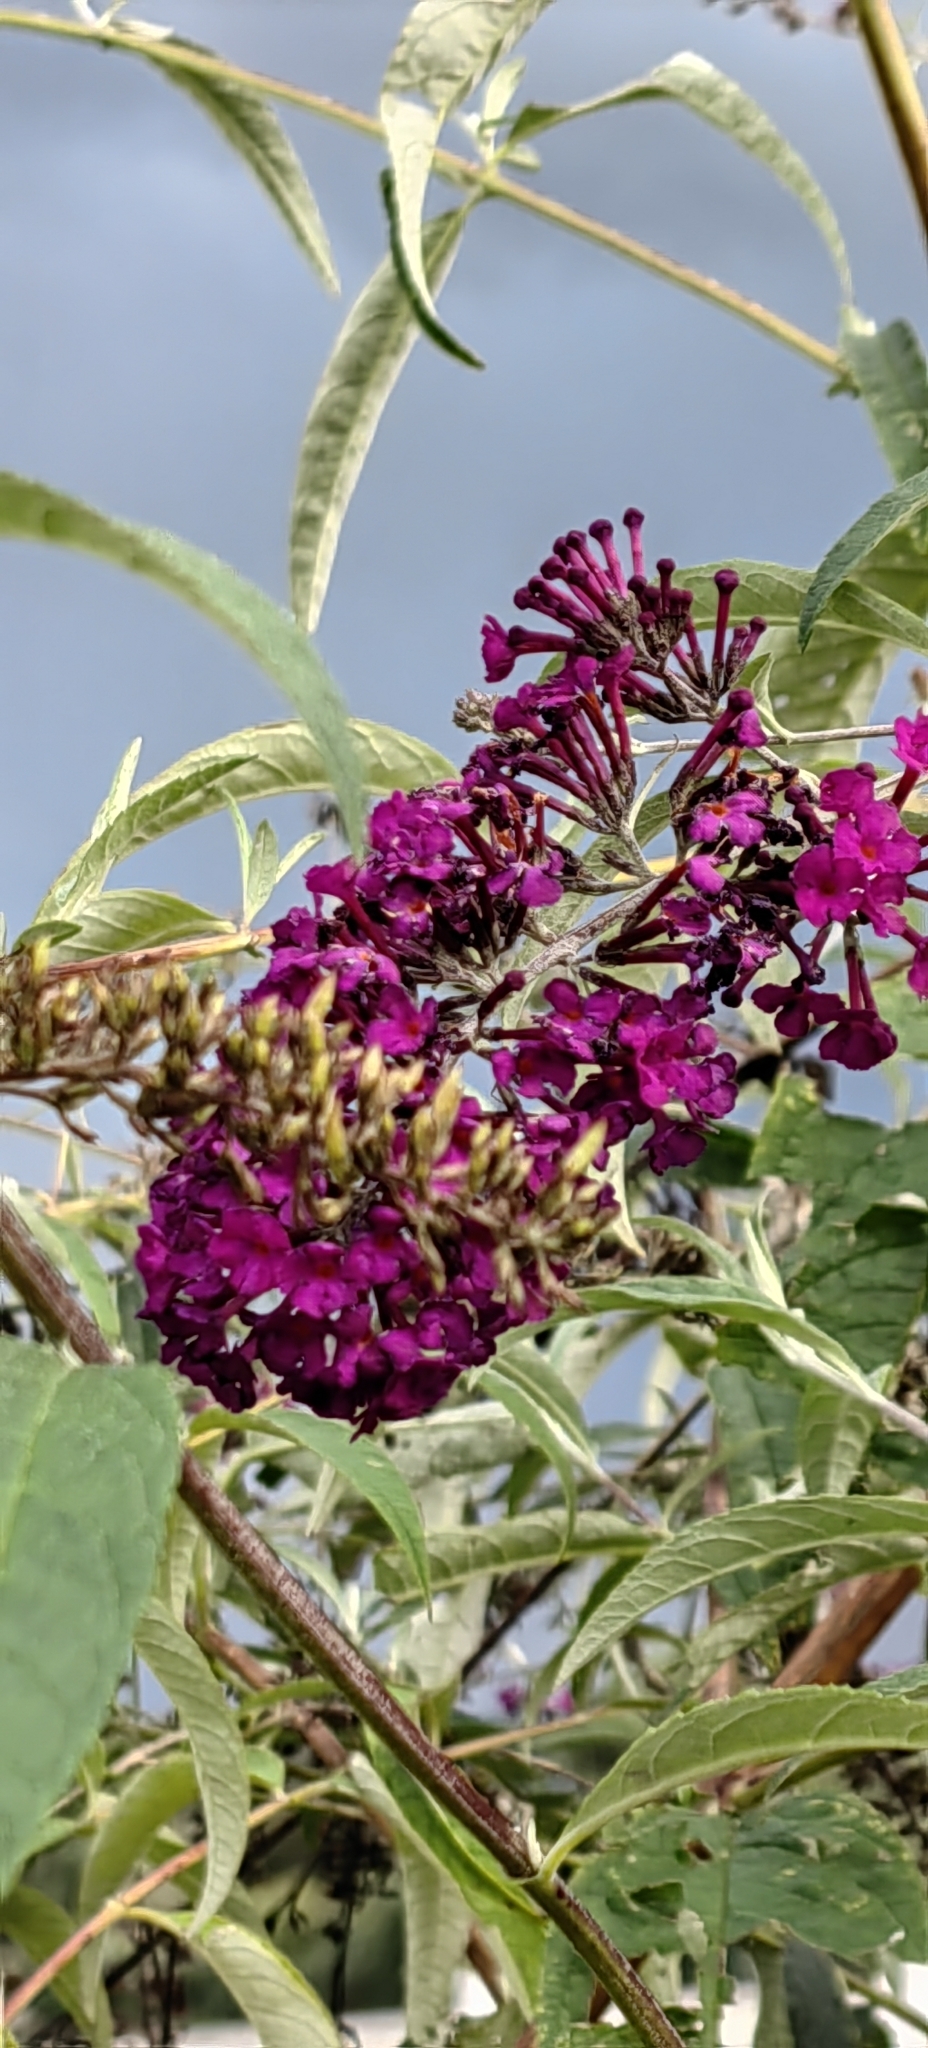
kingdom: Plantae
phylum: Tracheophyta
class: Magnoliopsida
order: Lamiales
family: Scrophulariaceae
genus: Buddleja
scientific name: Buddleja davidii
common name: Butterfly-bush
